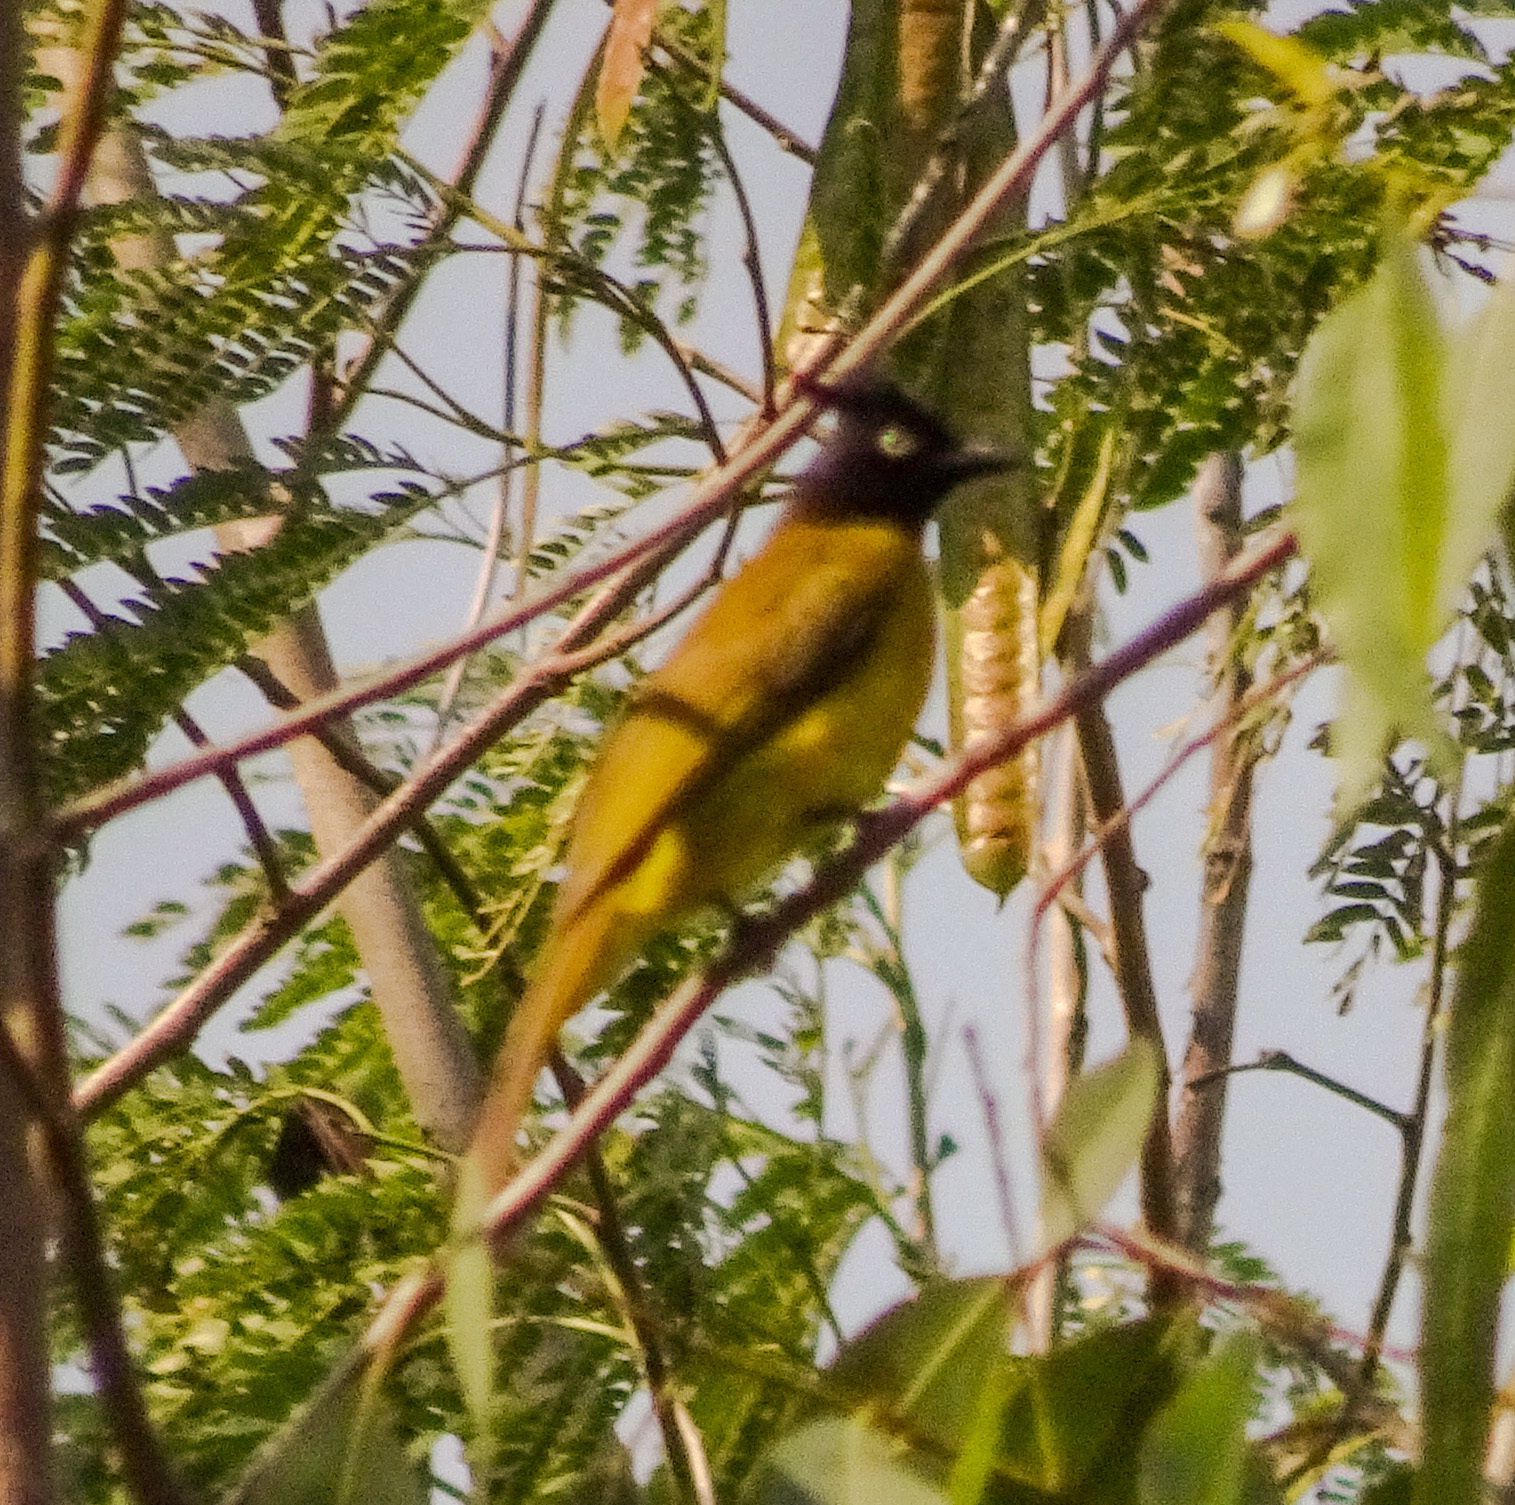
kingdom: Animalia
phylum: Chordata
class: Aves
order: Passeriformes
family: Pycnonotidae
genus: Pycnonotus
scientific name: Pycnonotus flaviventris
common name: Black-crested bulbul
